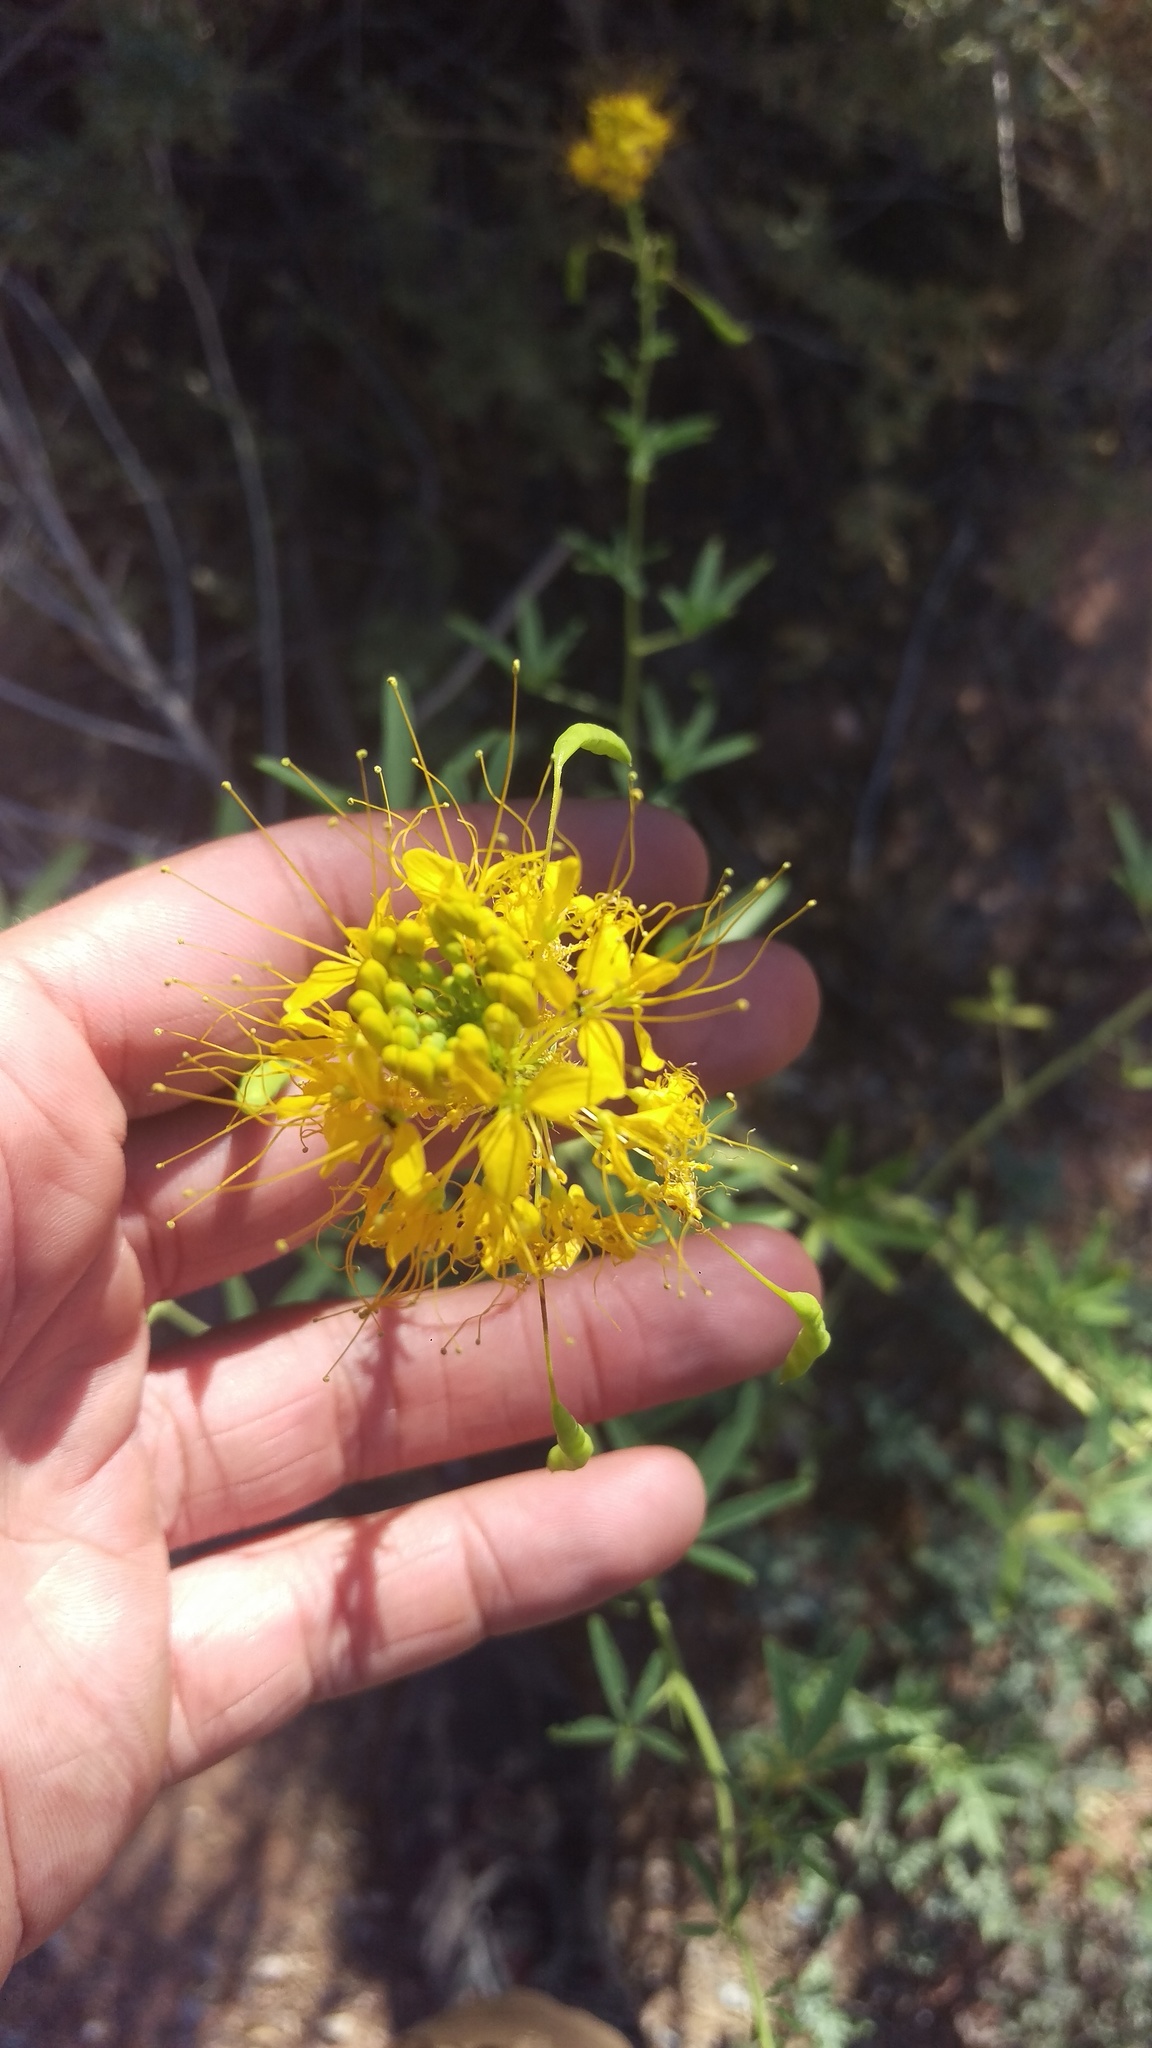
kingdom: Plantae
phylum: Tracheophyta
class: Magnoliopsida
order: Brassicales
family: Cleomaceae
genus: Cleomella
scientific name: Cleomella lutea
